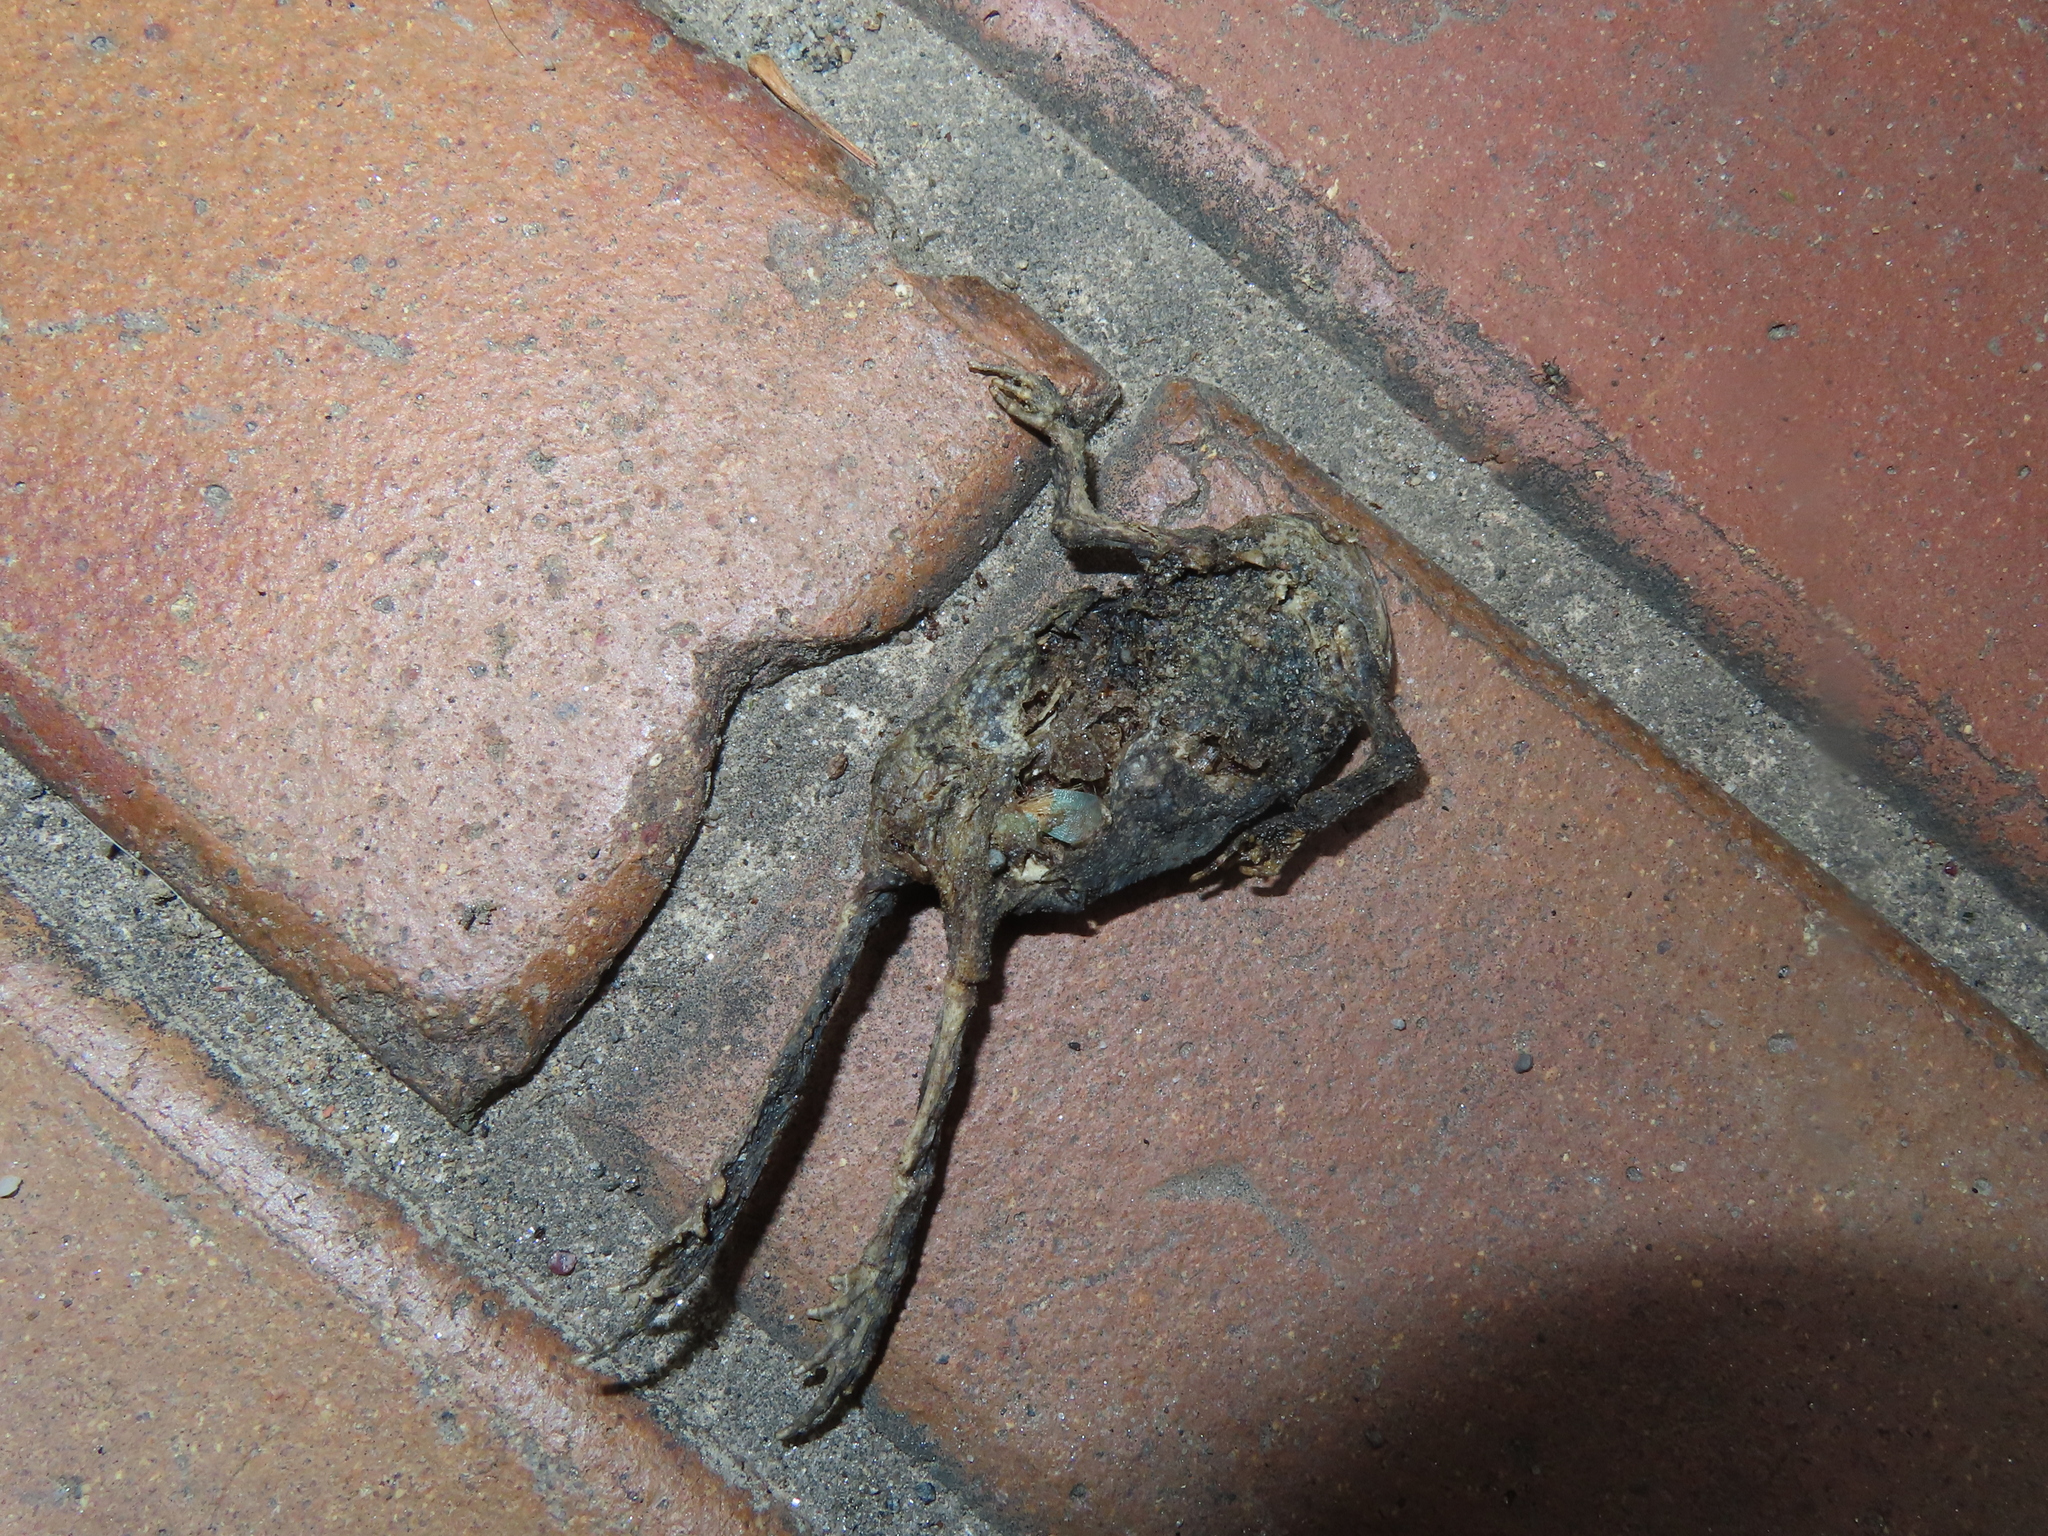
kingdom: Animalia
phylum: Chordata
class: Amphibia
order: Anura
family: Bufonidae
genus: Anaxyrus
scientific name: Anaxyrus
